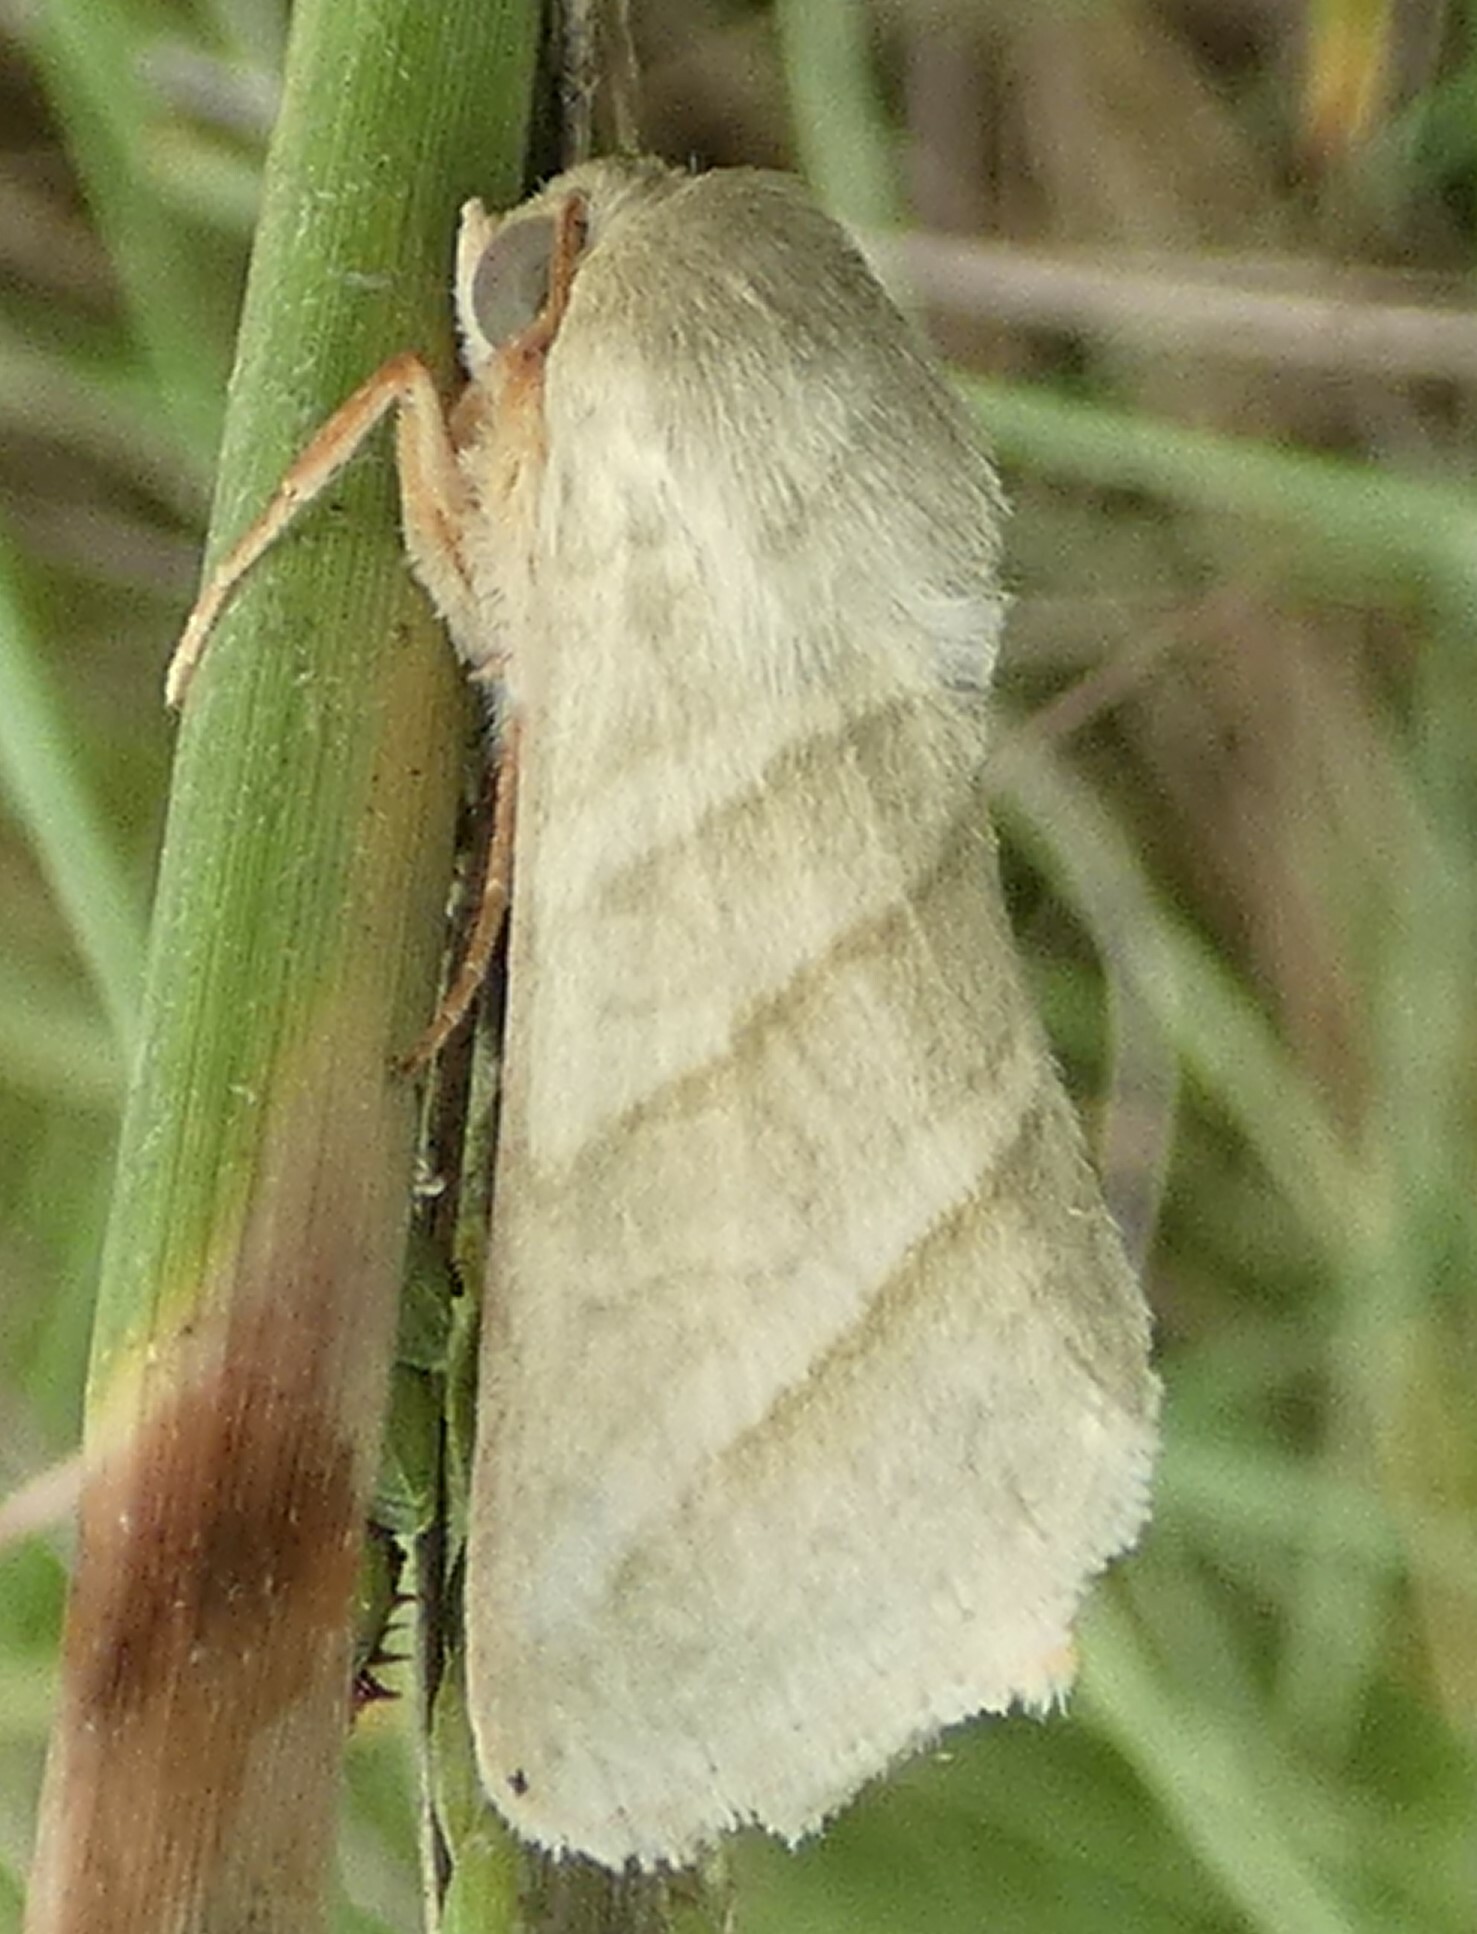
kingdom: Animalia
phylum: Arthropoda
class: Insecta
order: Lepidoptera
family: Noctuidae
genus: Chloridea
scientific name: Chloridea virescens
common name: Tobacco budworm
